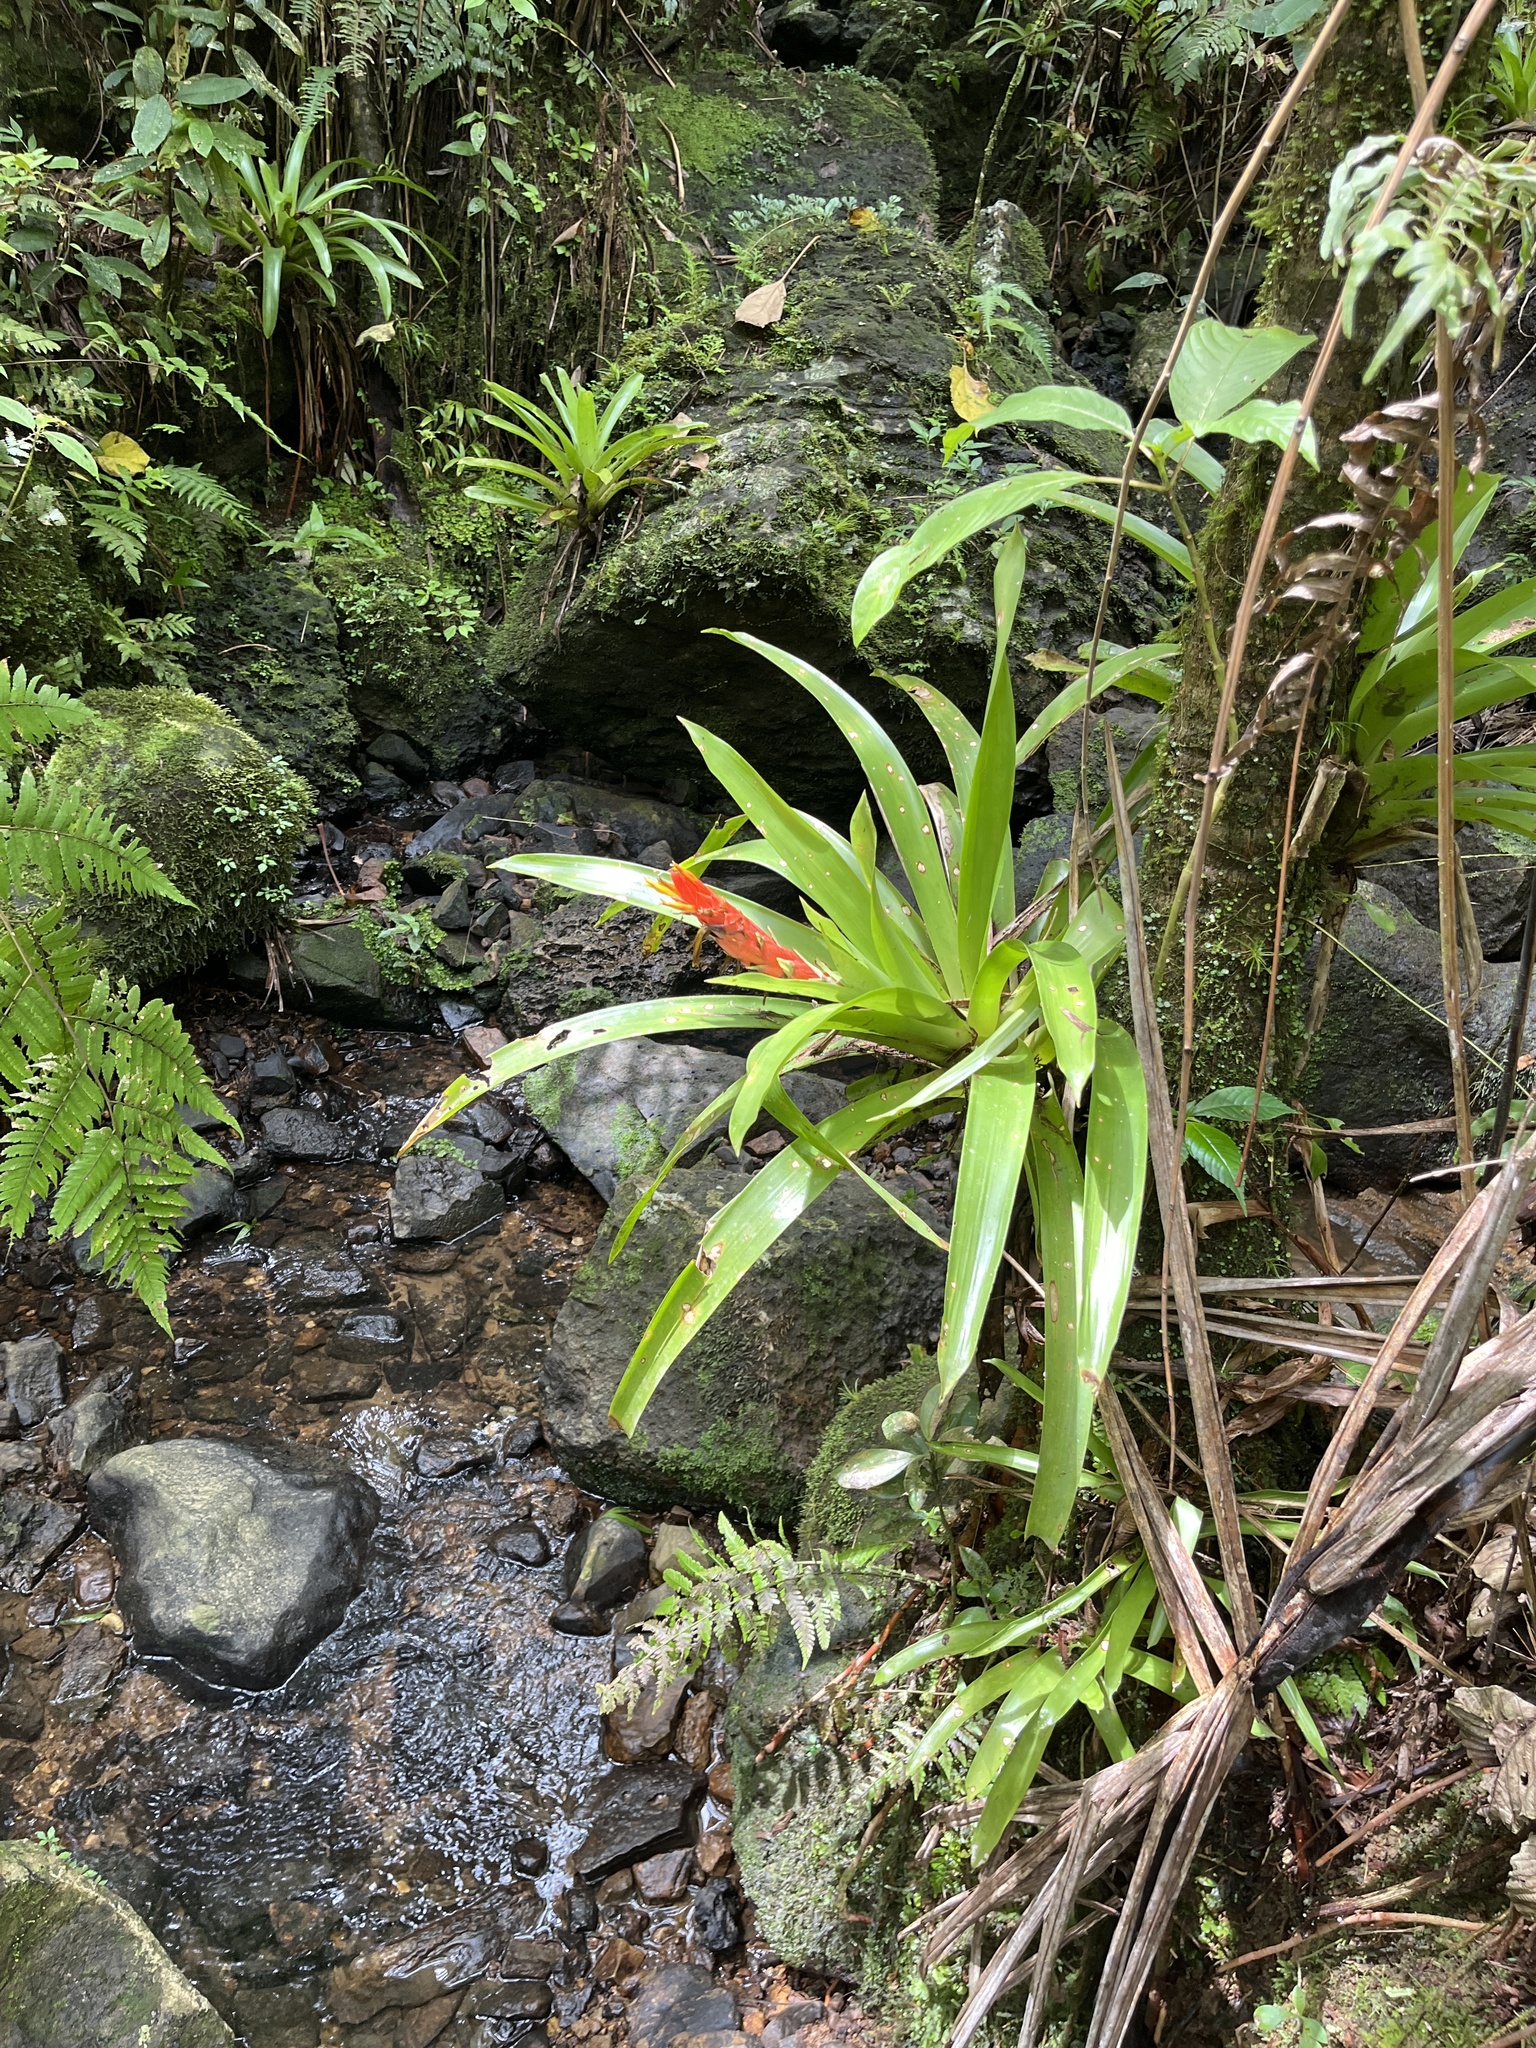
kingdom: Plantae
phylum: Tracheophyta
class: Liliopsida
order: Poales
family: Bromeliaceae
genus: Guzmania
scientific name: Guzmania berteroniana
